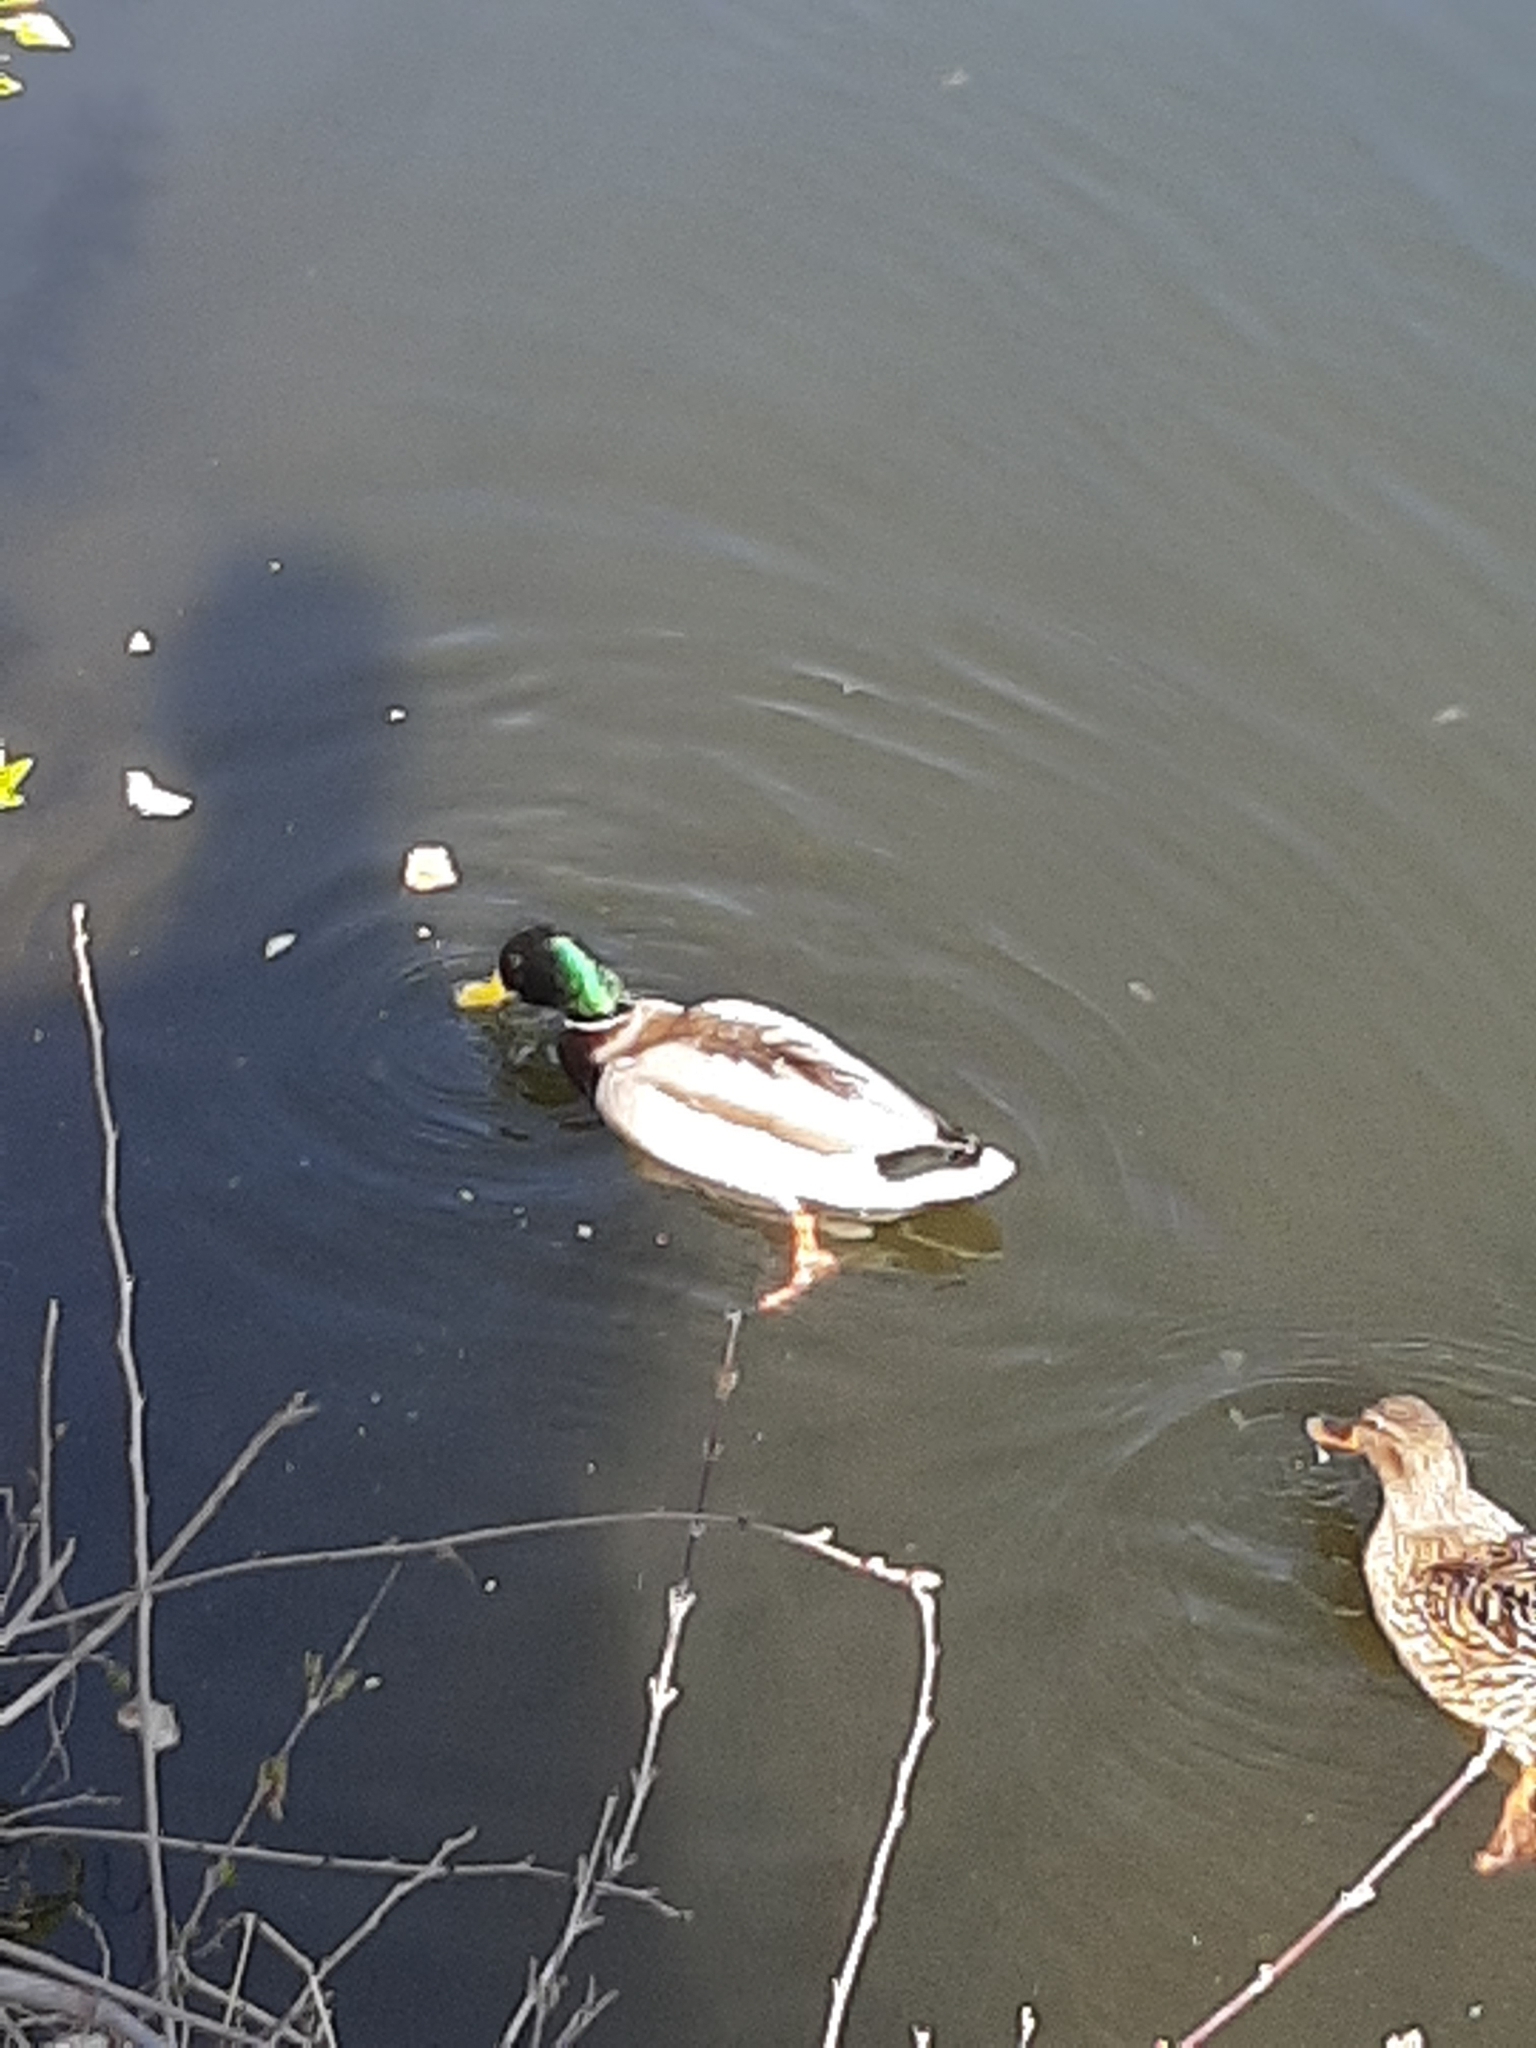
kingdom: Animalia
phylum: Chordata
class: Aves
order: Anseriformes
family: Anatidae
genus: Anas
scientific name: Anas platyrhynchos
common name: Mallard
